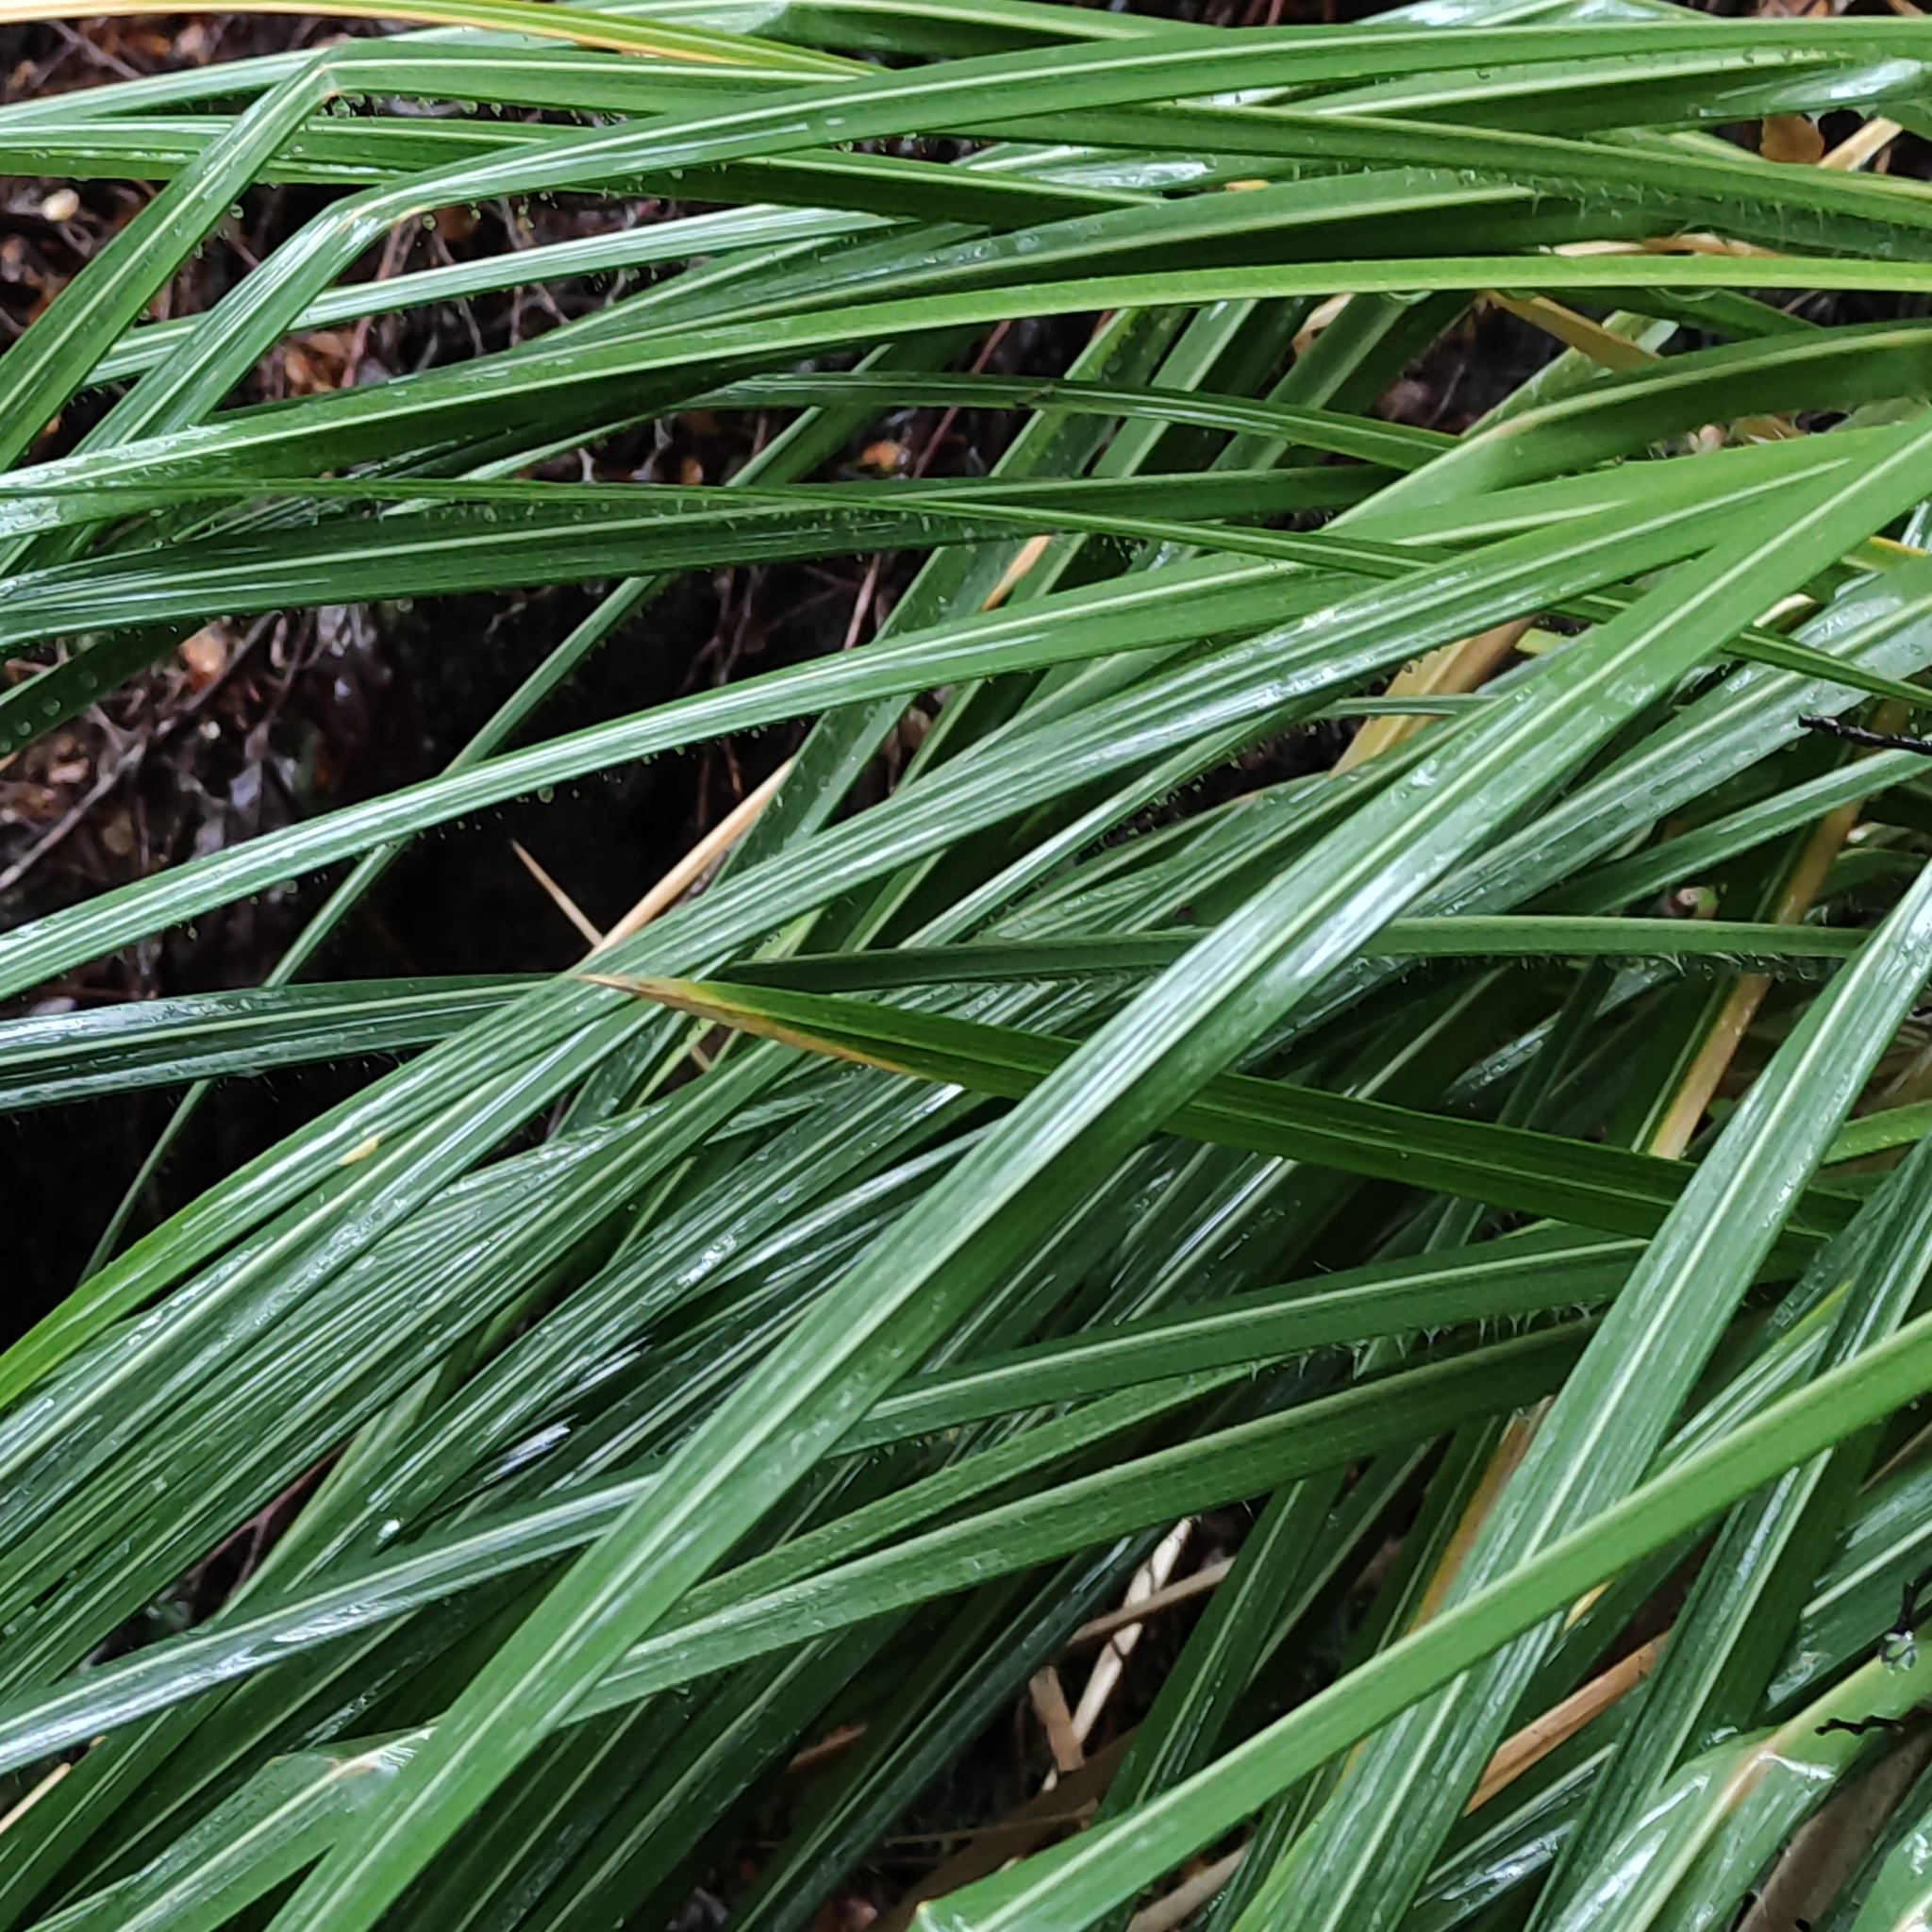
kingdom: Plantae
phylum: Tracheophyta
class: Liliopsida
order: Poales
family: Poaceae
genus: Chionochloa
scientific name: Chionochloa conspicua
